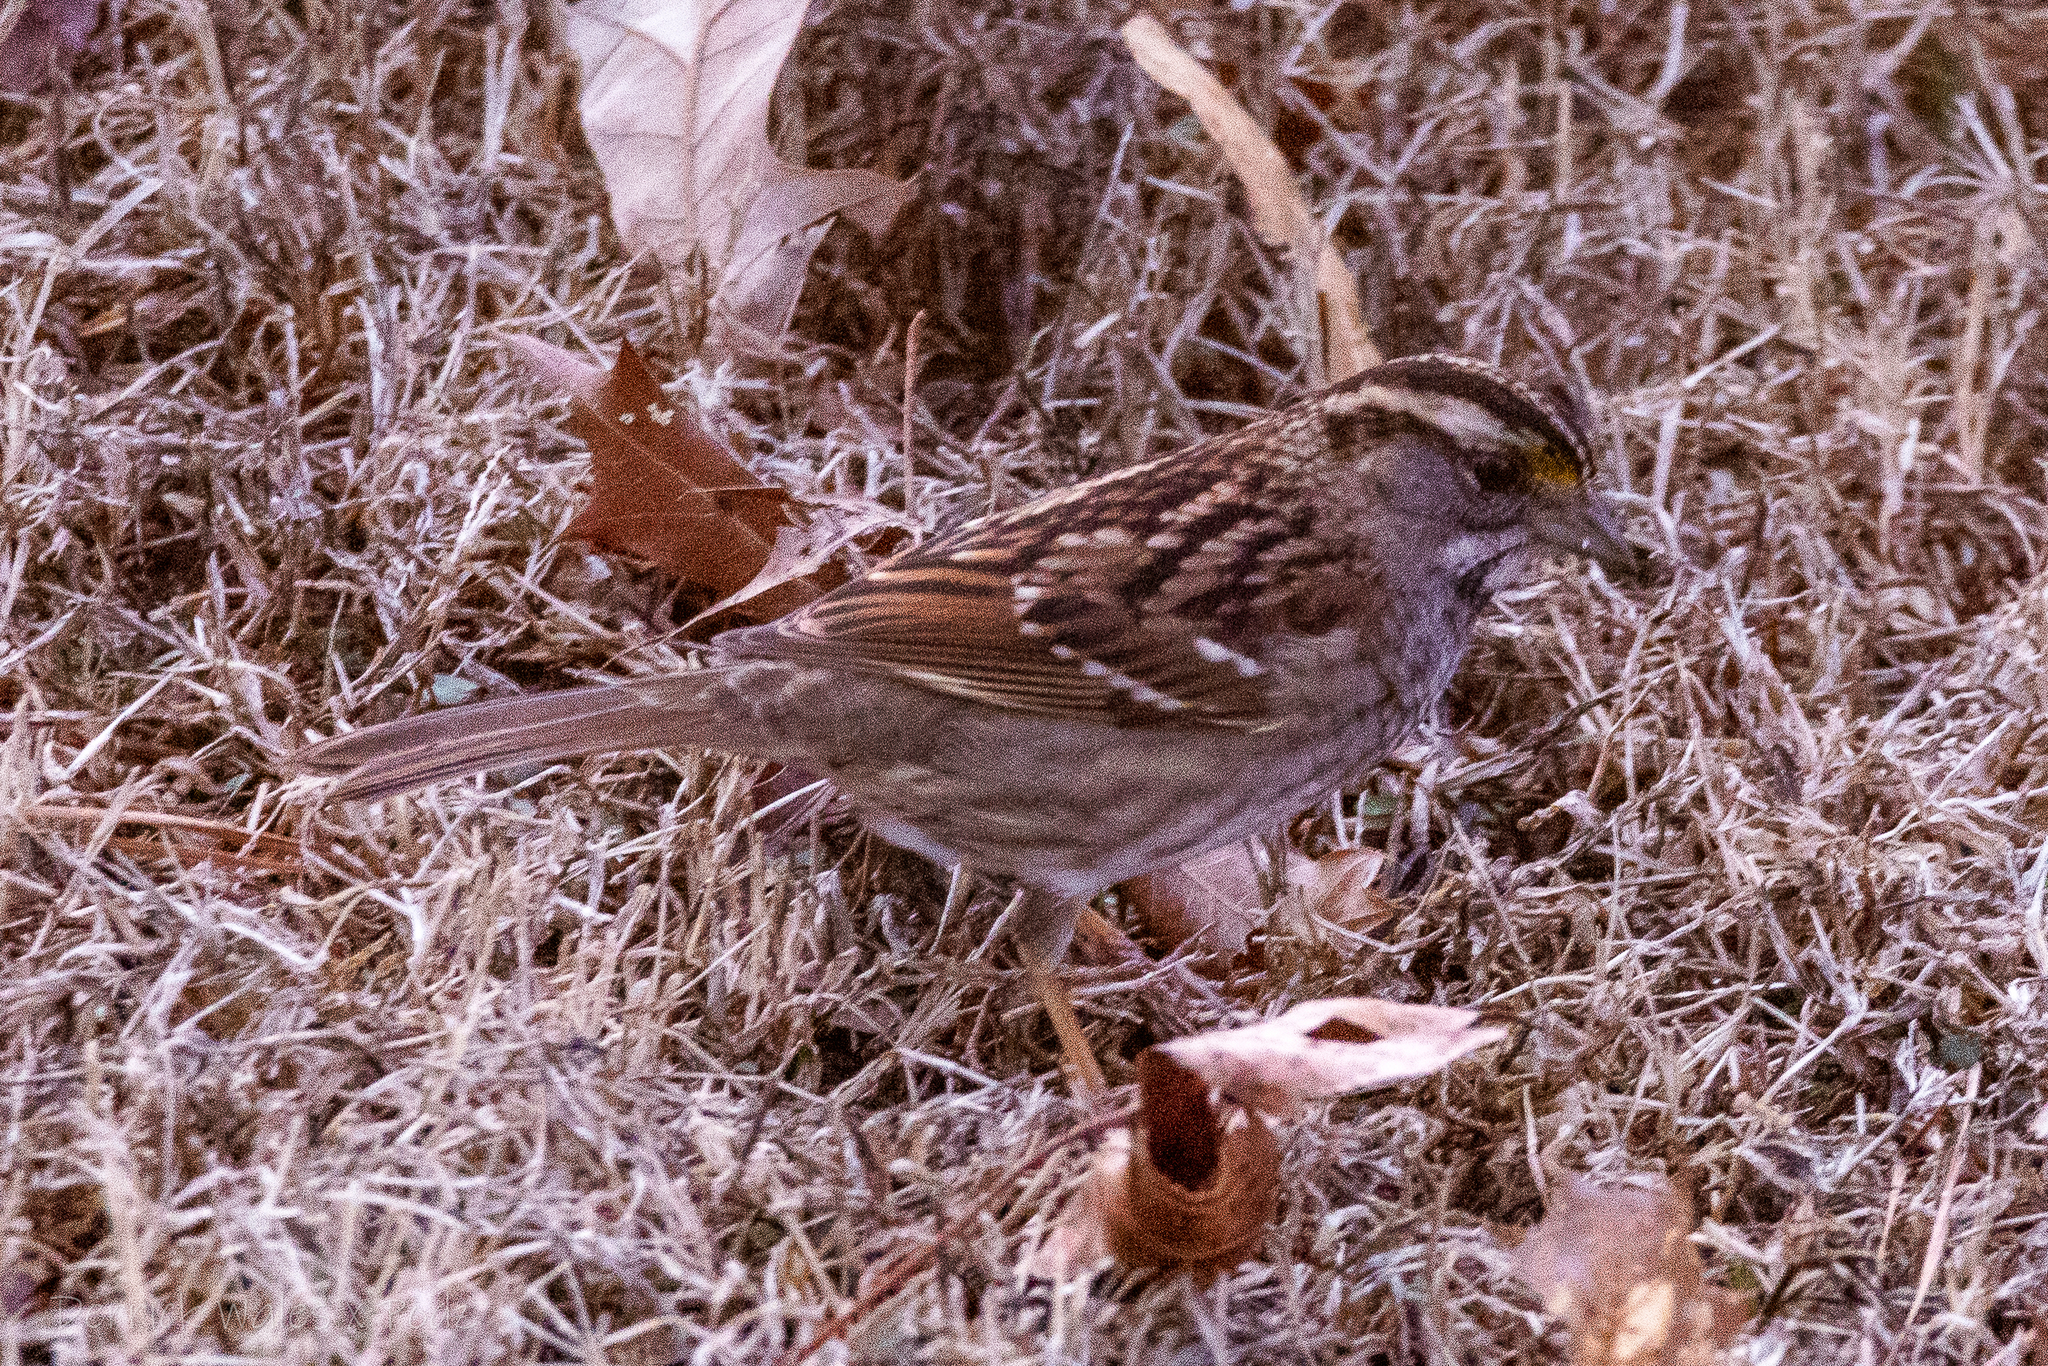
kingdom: Animalia
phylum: Chordata
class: Aves
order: Passeriformes
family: Passerellidae
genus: Zonotrichia
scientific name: Zonotrichia albicollis
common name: White-throated sparrow
